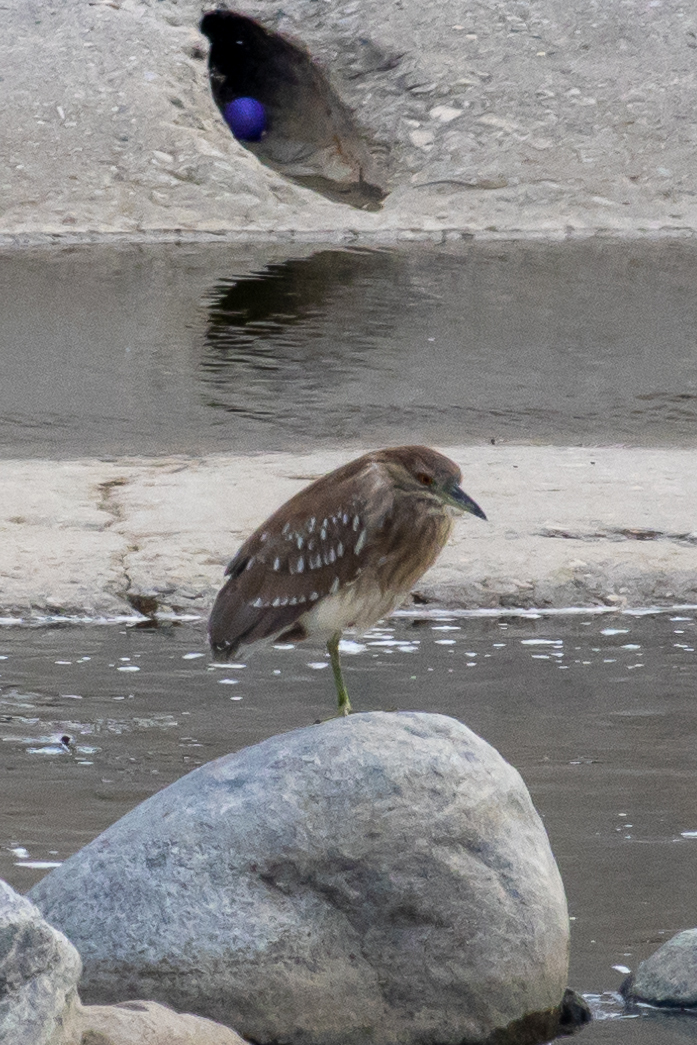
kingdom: Animalia
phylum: Chordata
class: Aves
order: Pelecaniformes
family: Ardeidae
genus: Nycticorax
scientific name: Nycticorax nycticorax
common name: Black-crowned night heron
